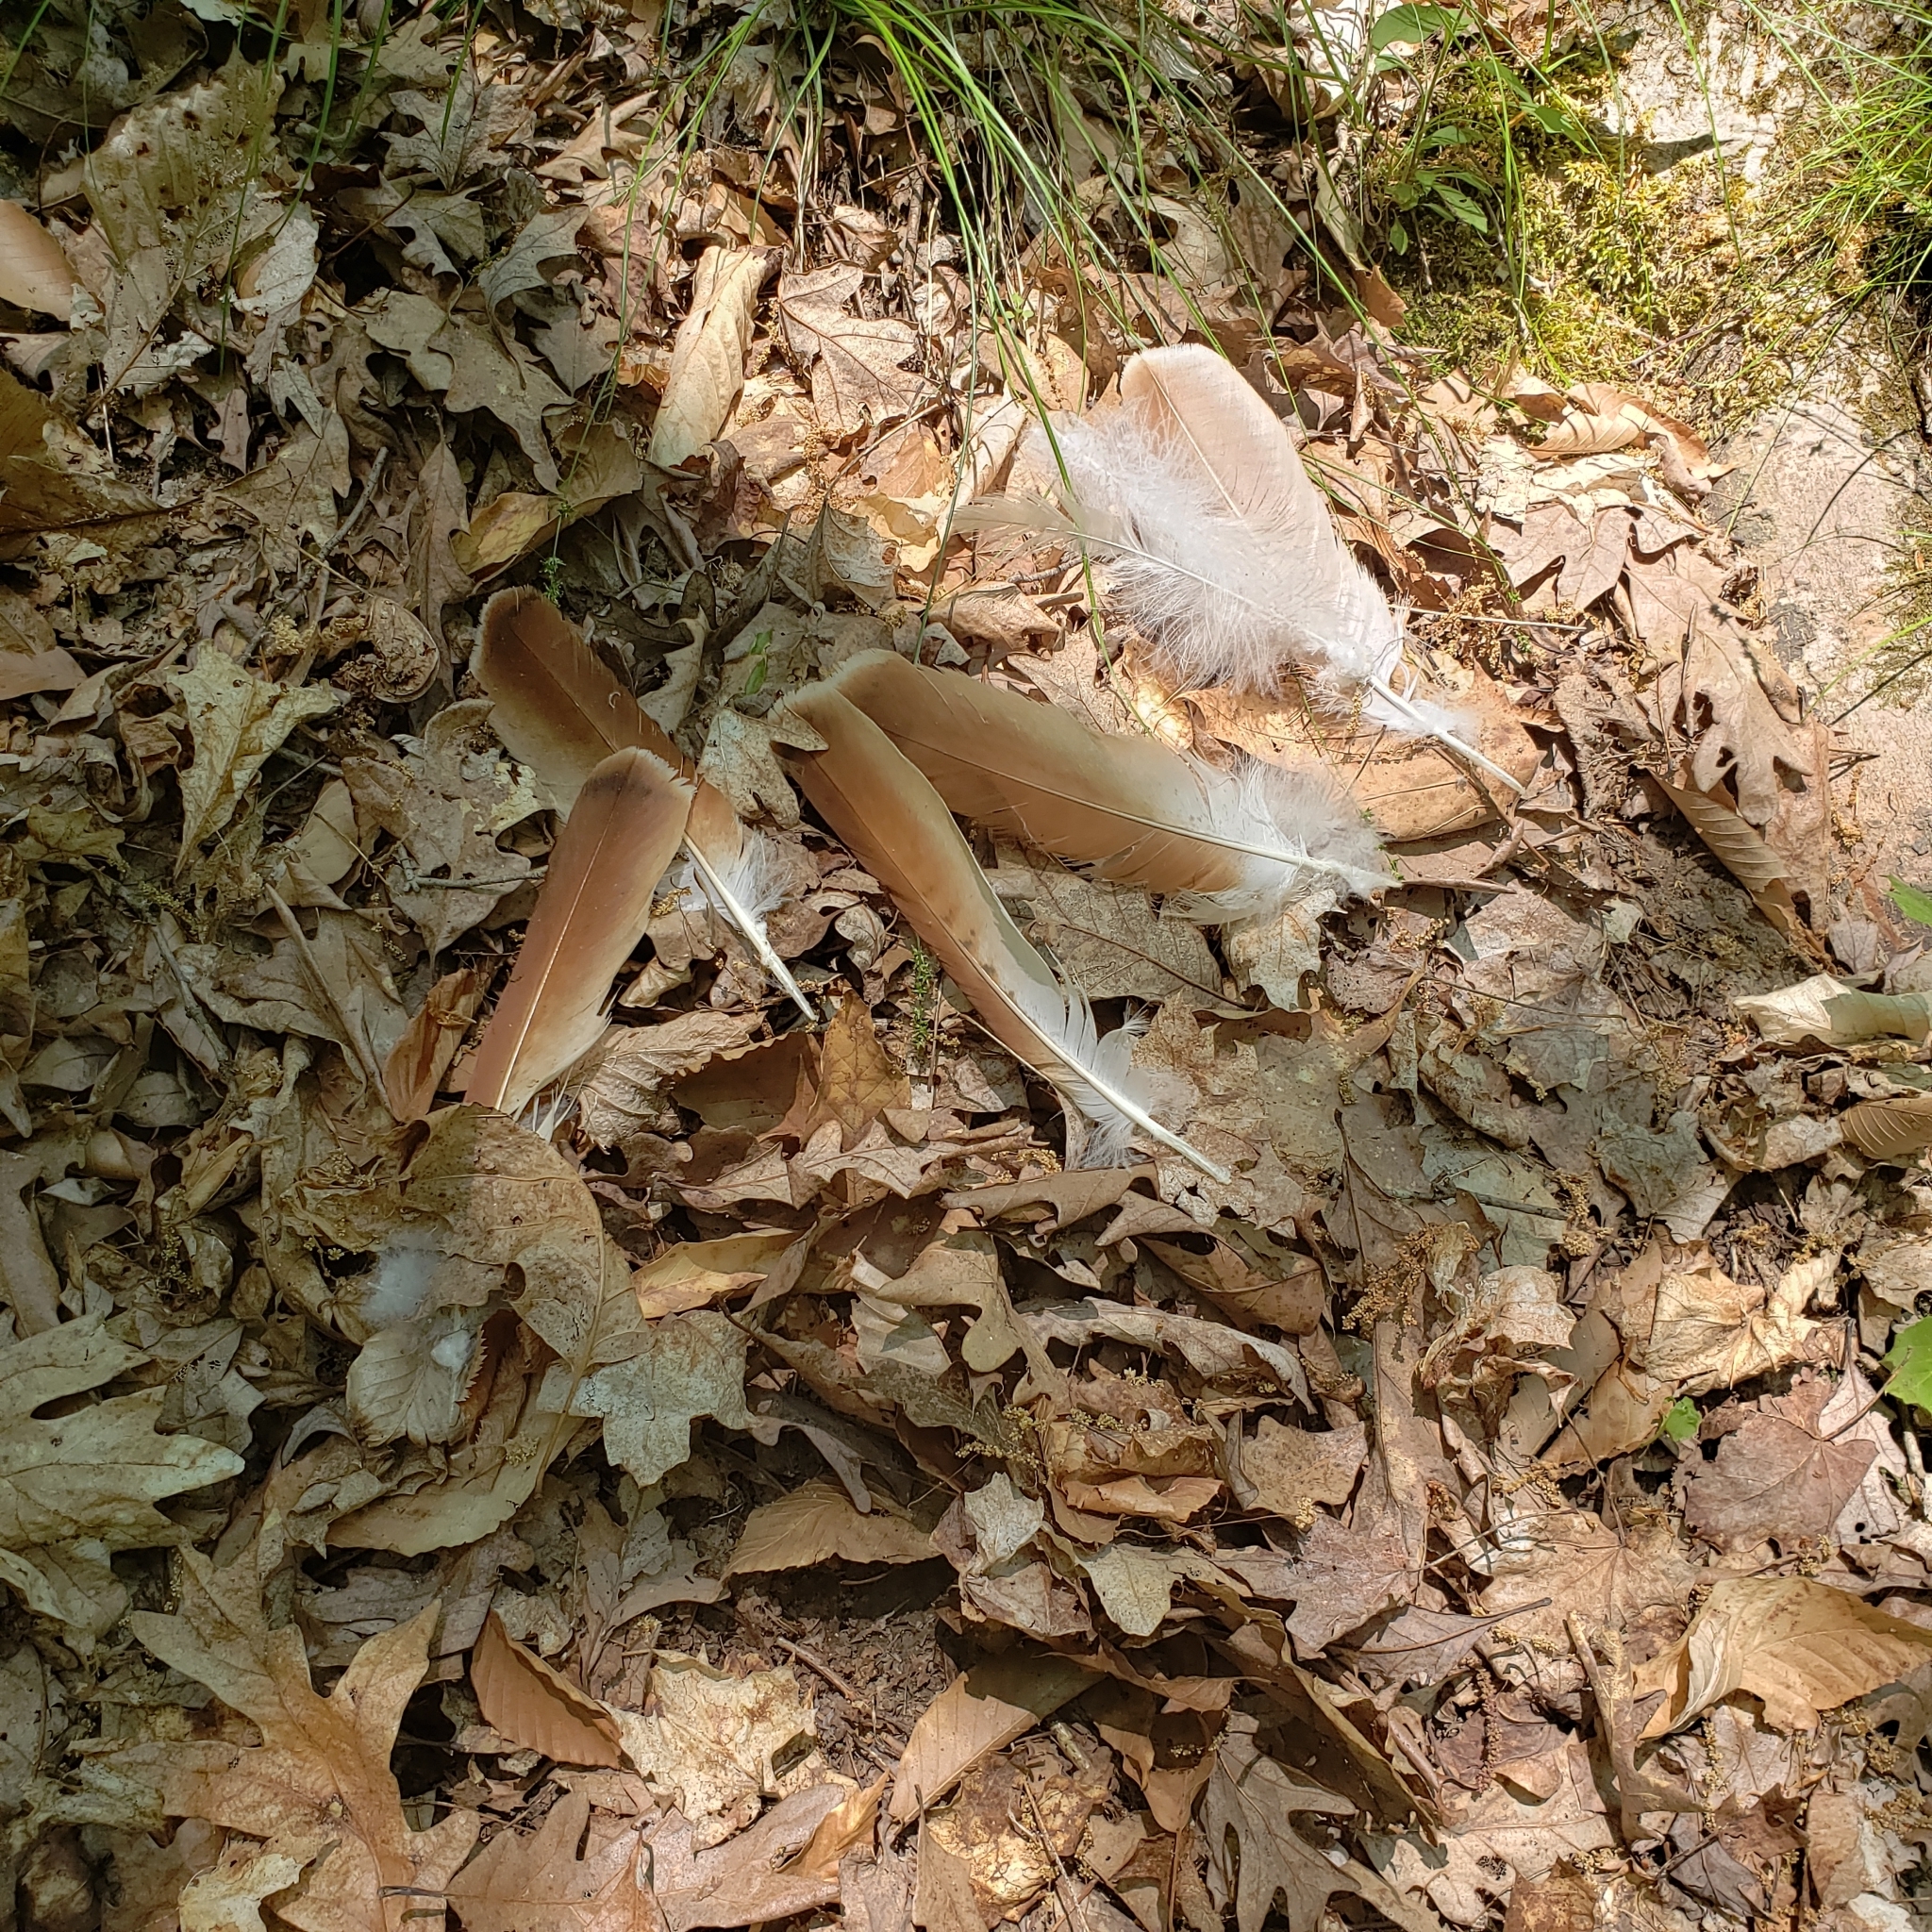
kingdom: Animalia
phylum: Chordata
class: Aves
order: Accipitriformes
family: Accipitridae
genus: Buteo
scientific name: Buteo jamaicensis
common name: Red-tailed hawk
